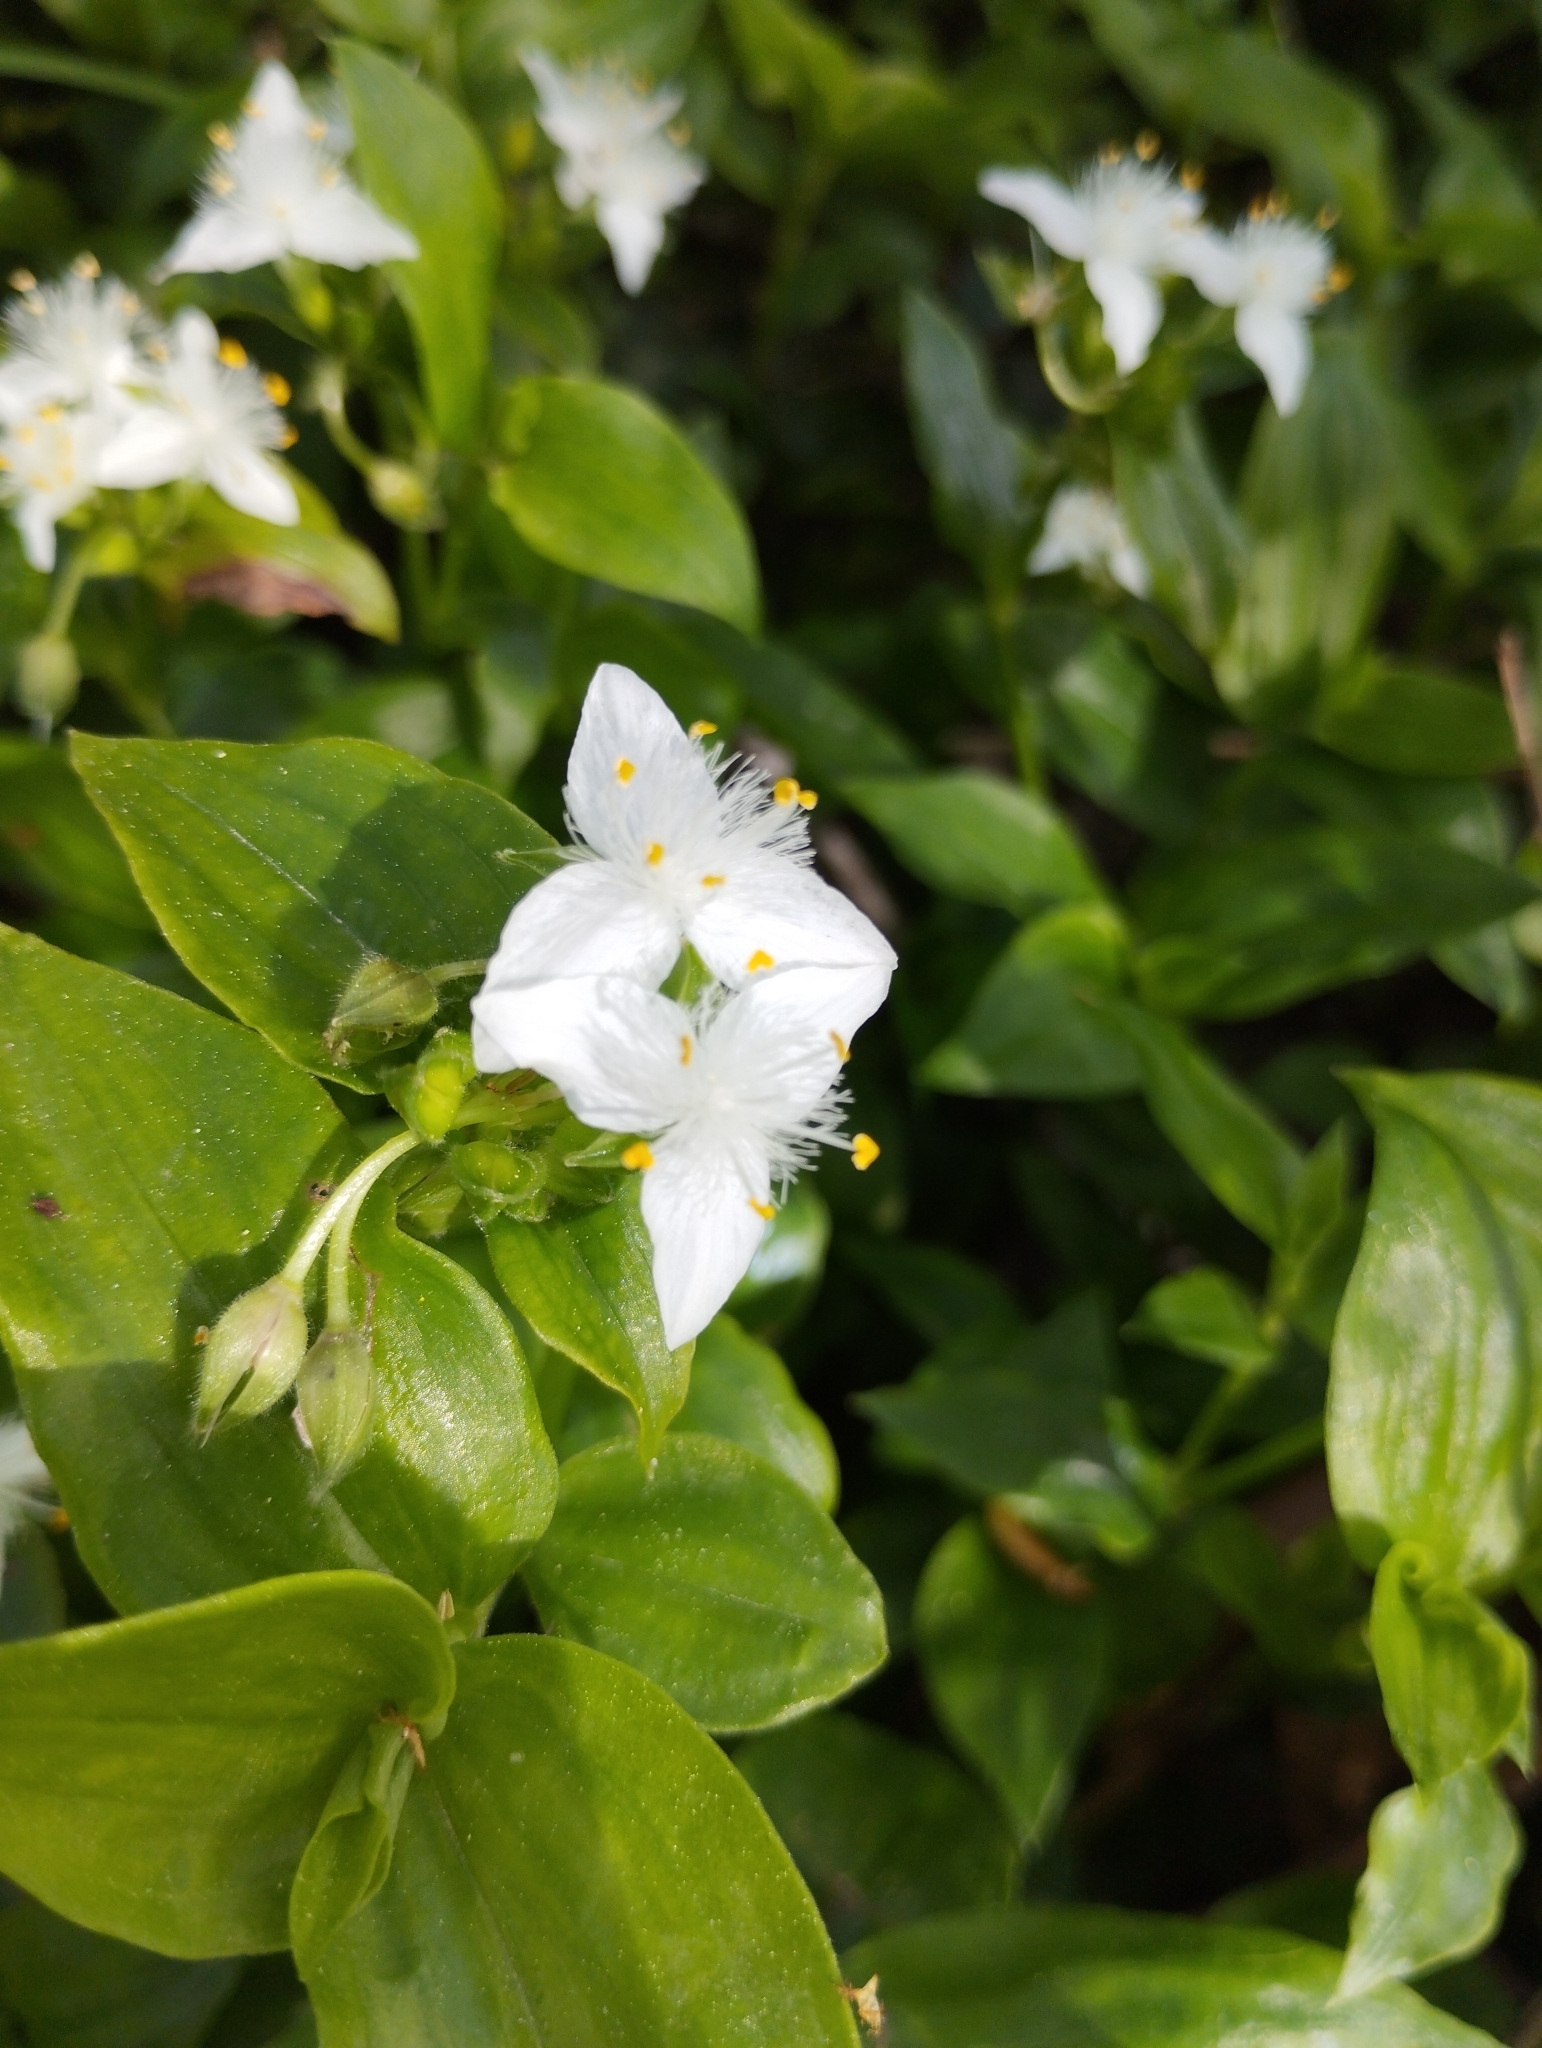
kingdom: Plantae
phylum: Tracheophyta
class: Liliopsida
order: Commelinales
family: Commelinaceae
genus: Tradescantia
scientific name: Tradescantia fluminensis
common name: Wandering-jew
